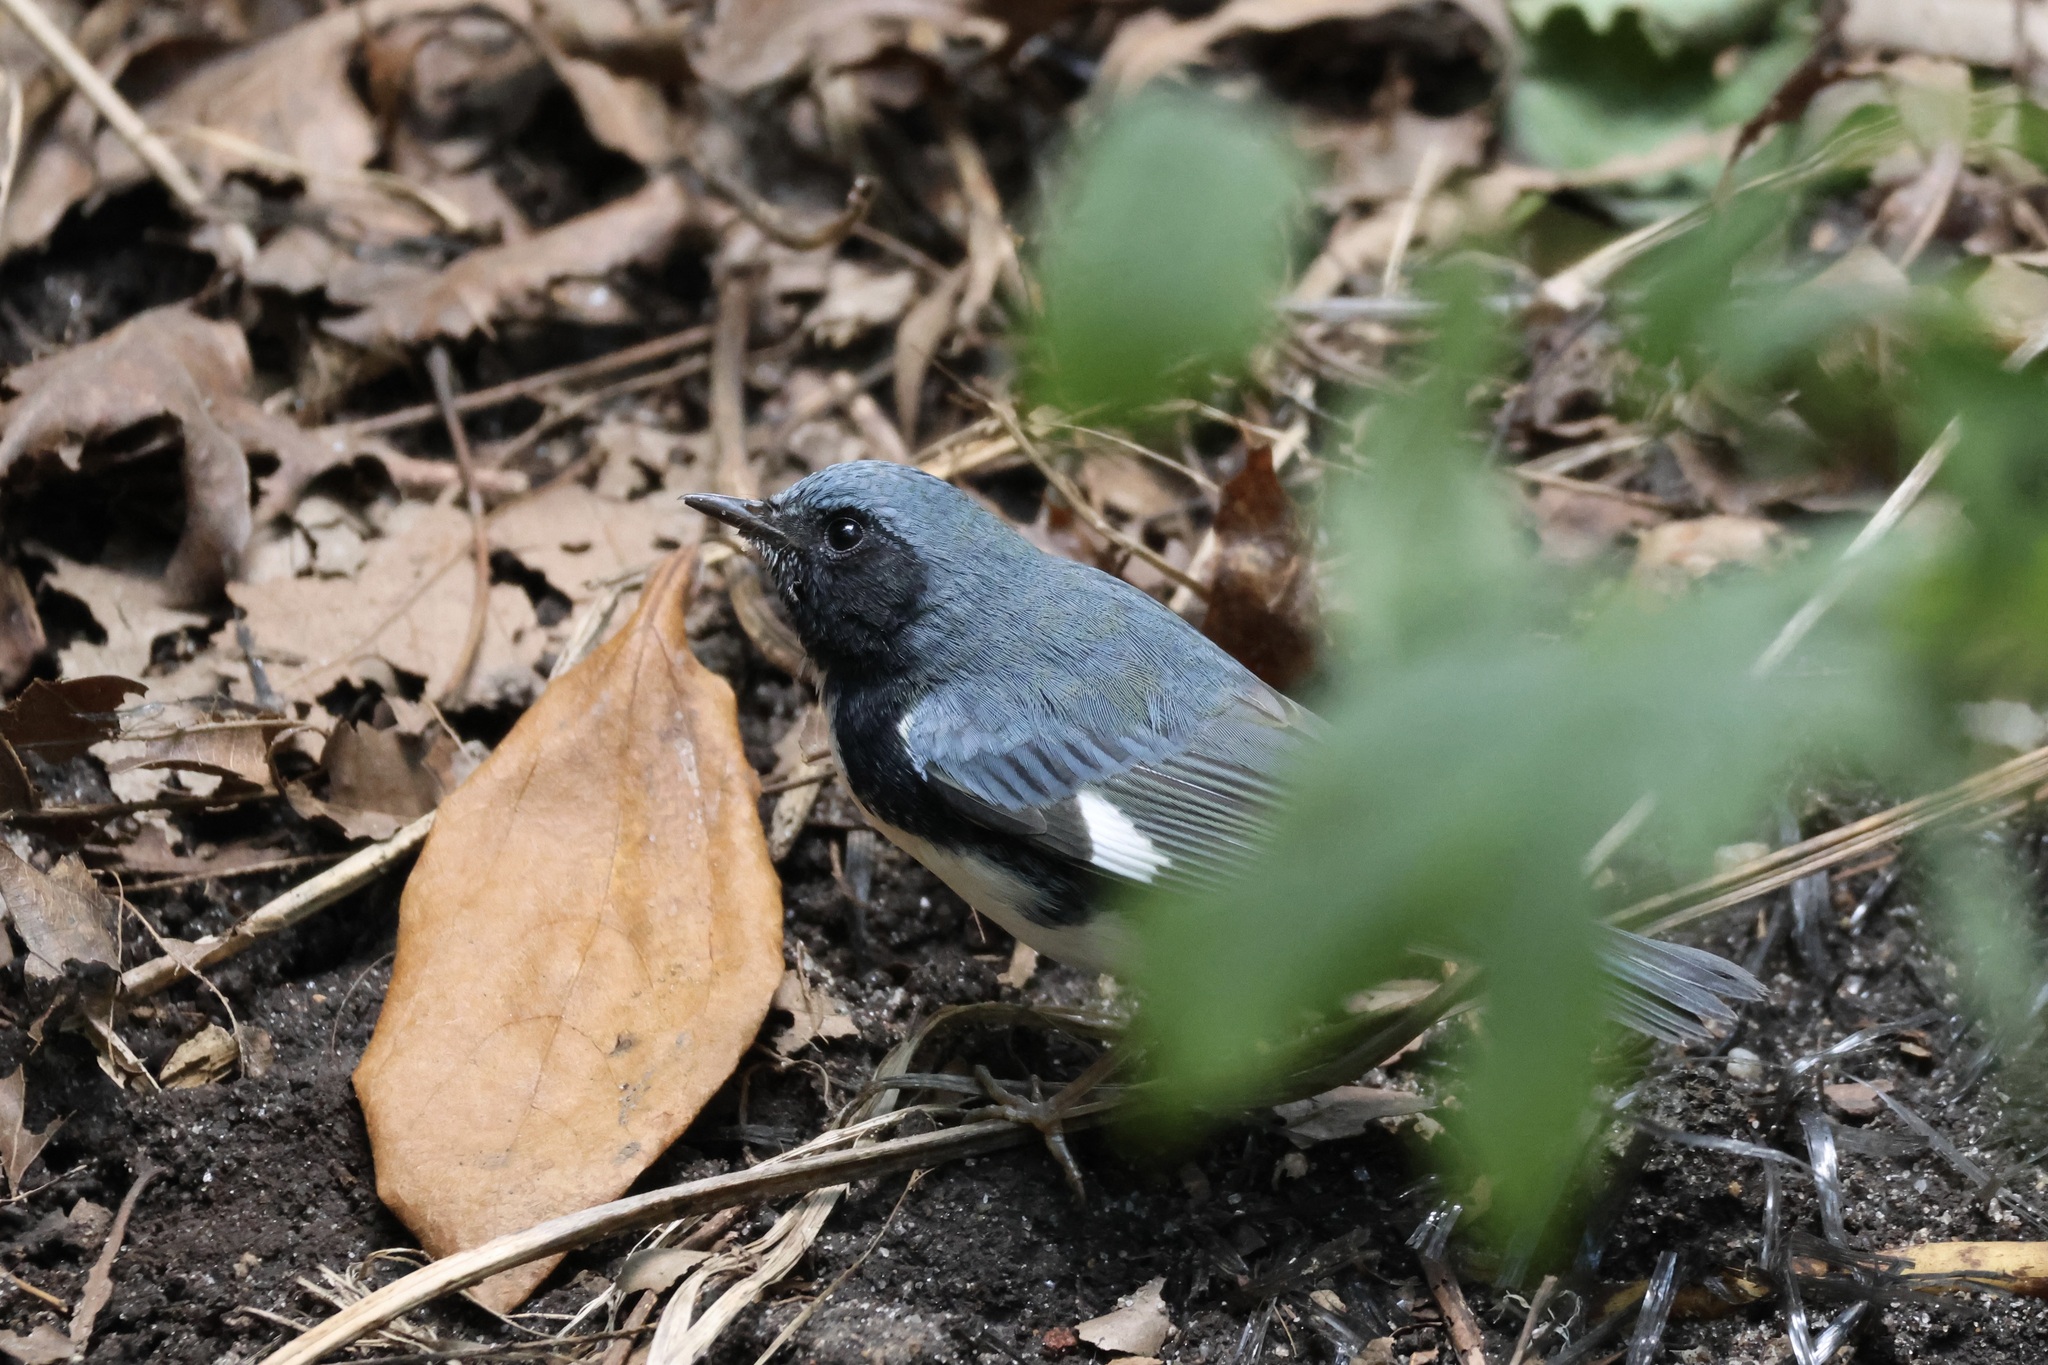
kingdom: Animalia
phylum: Chordata
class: Aves
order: Passeriformes
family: Parulidae
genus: Setophaga
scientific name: Setophaga caerulescens
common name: Black-throated blue warbler
